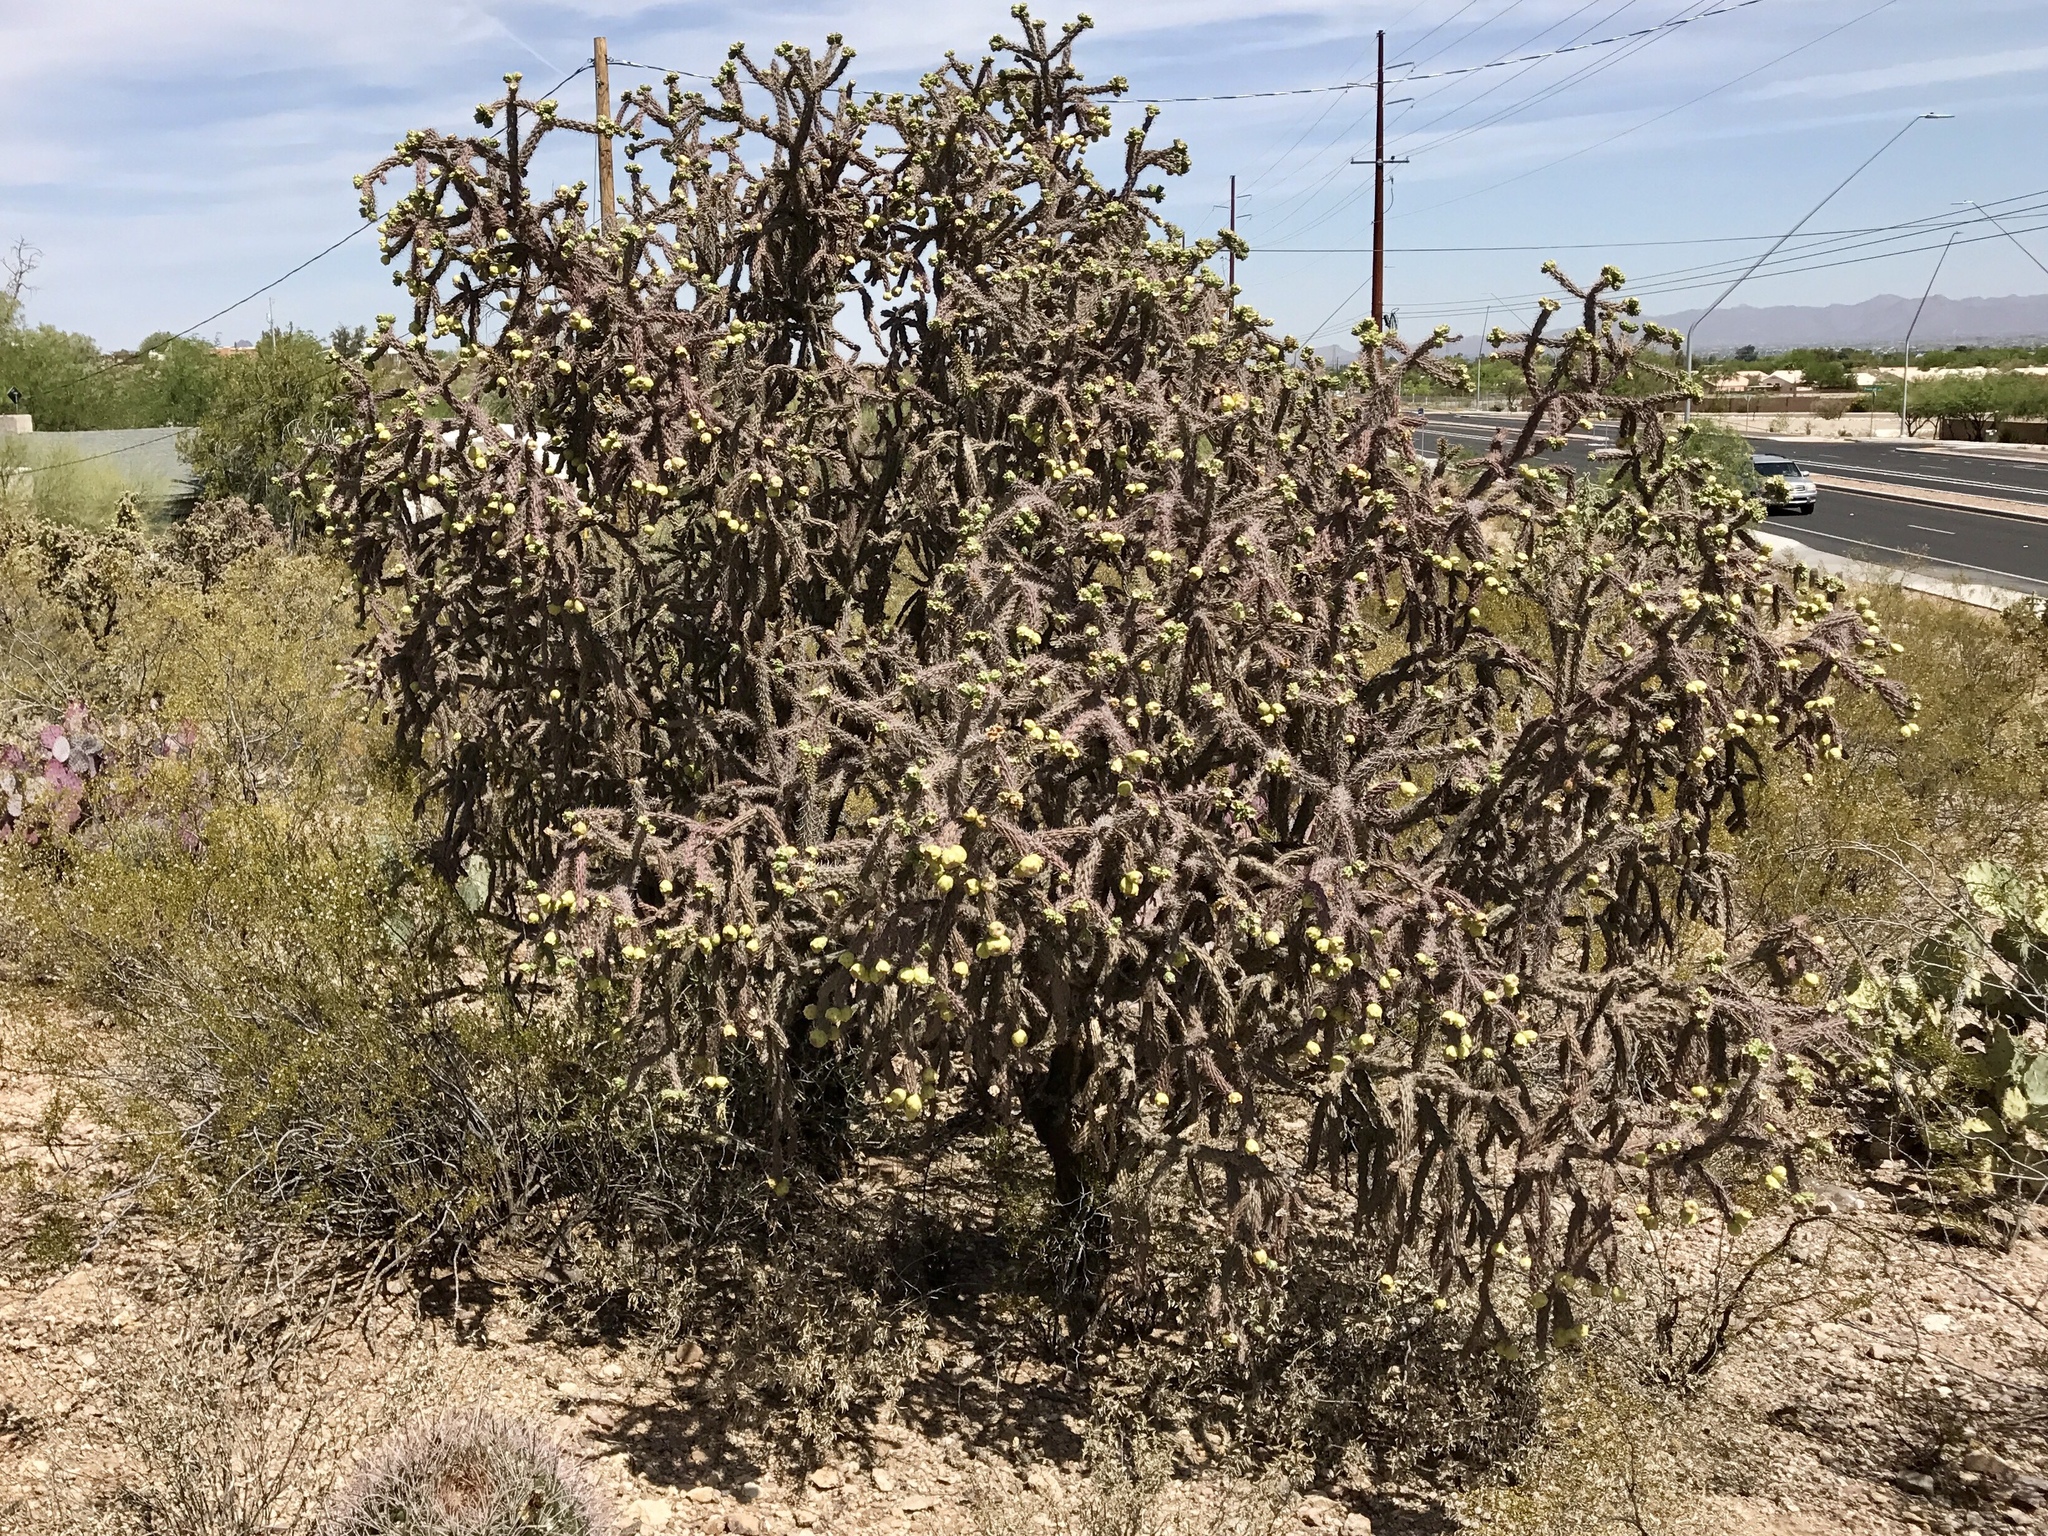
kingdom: Plantae
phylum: Tracheophyta
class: Magnoliopsida
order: Caryophyllales
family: Cactaceae
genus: Cylindropuntia
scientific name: Cylindropuntia thurberi
